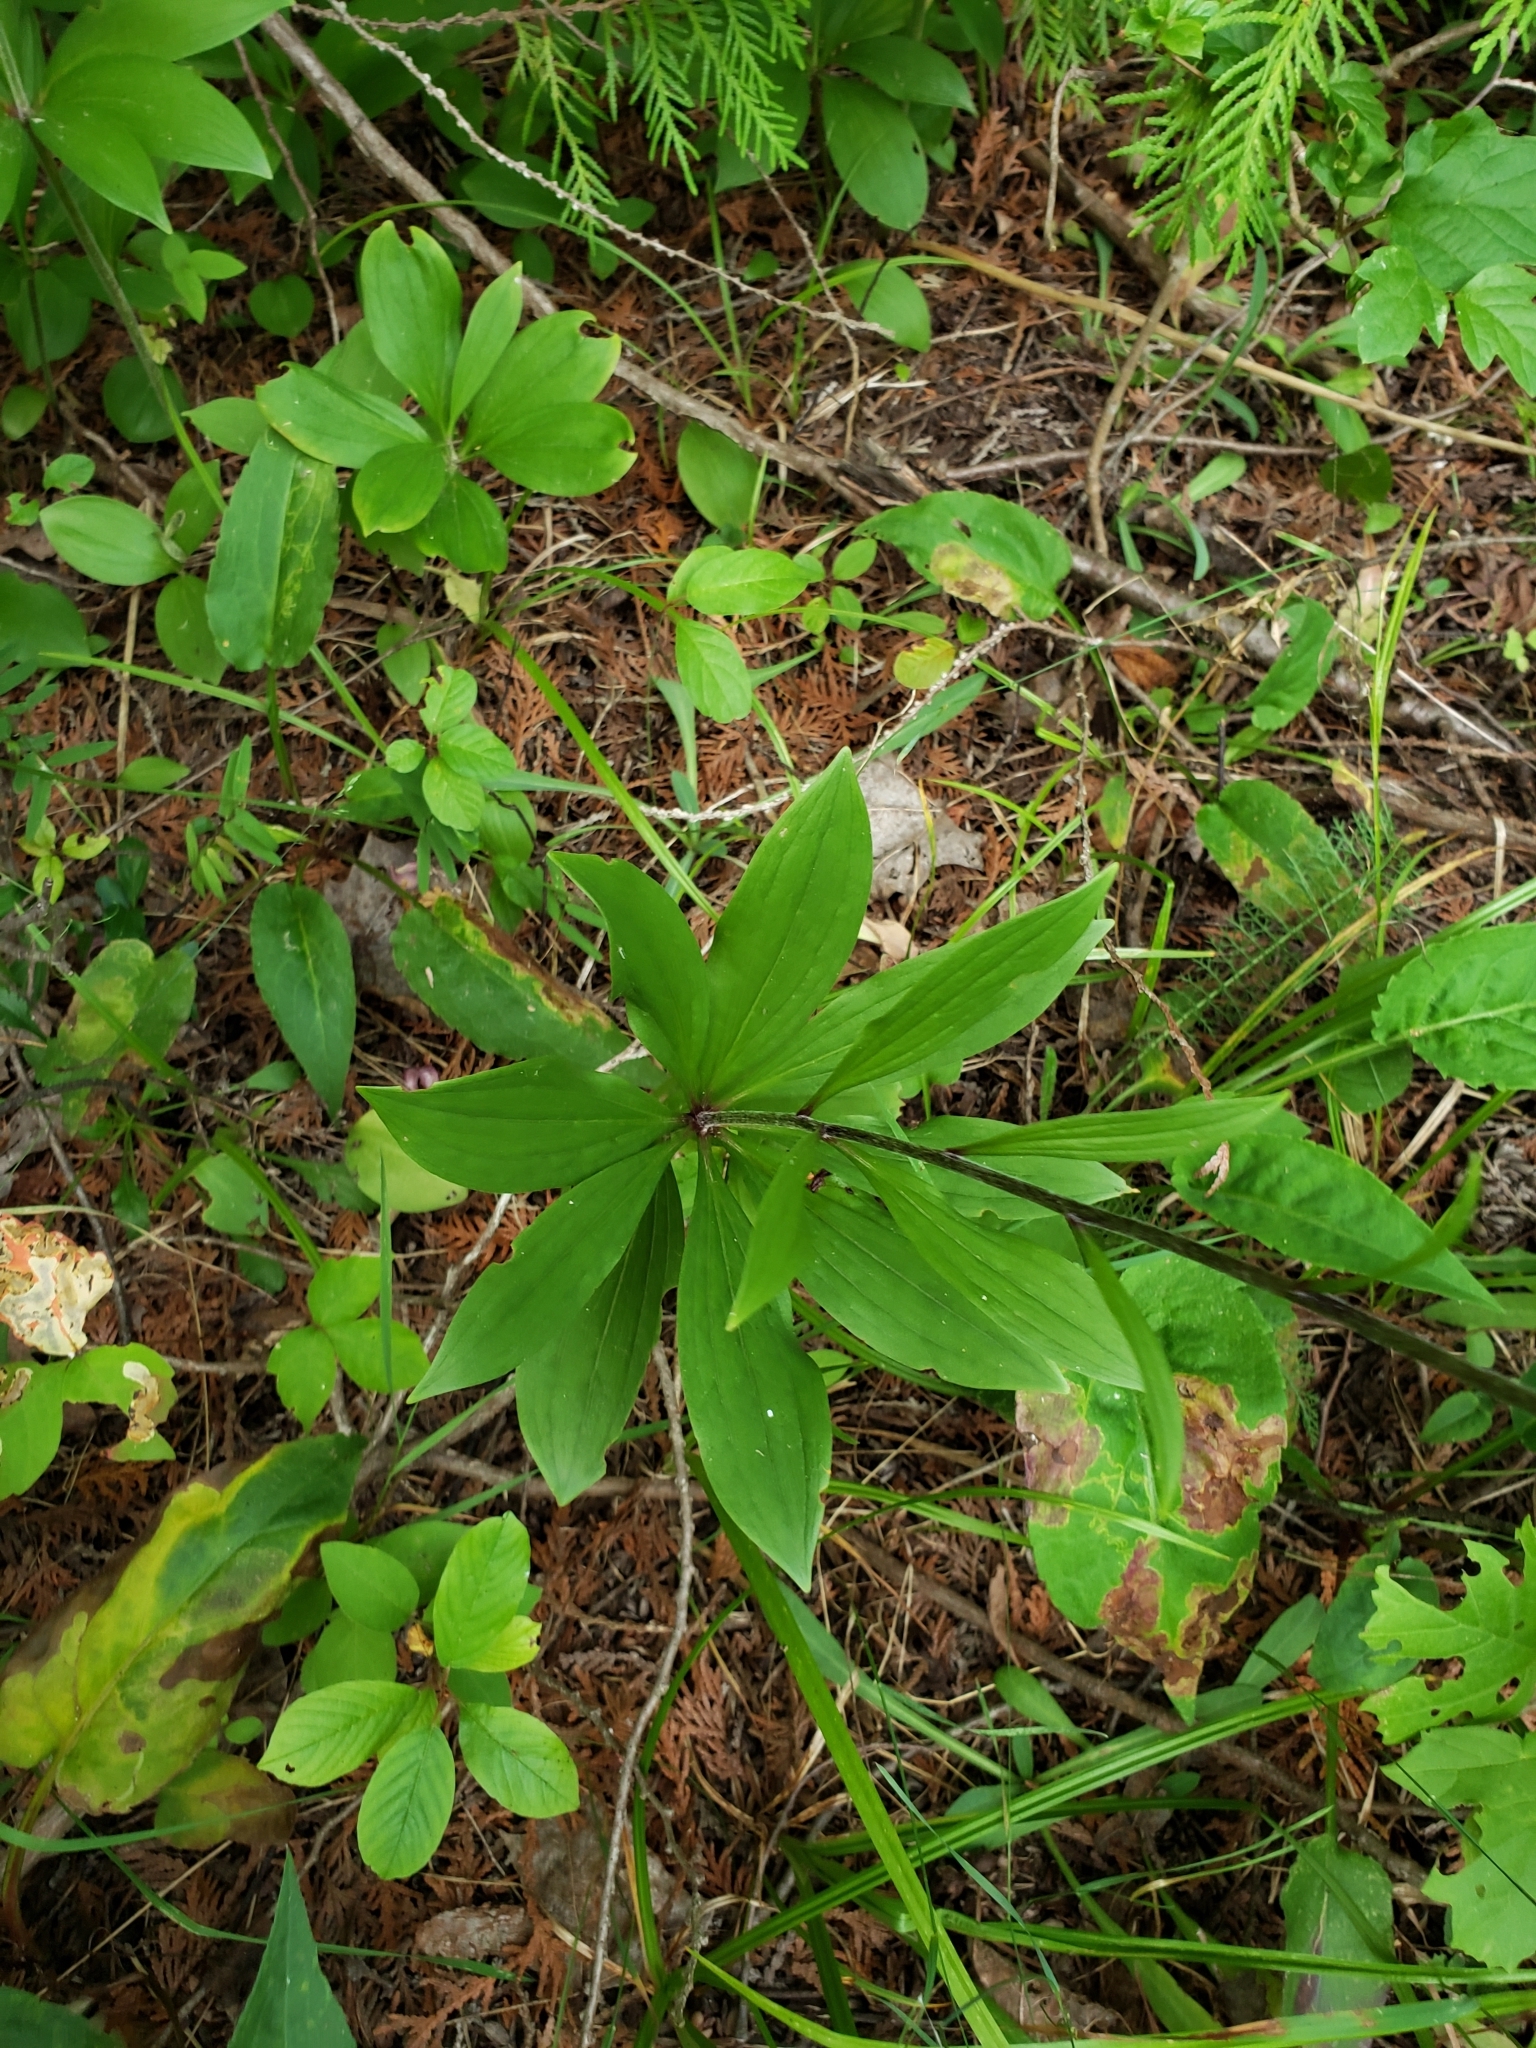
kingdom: Plantae
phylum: Tracheophyta
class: Liliopsida
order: Liliales
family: Liliaceae
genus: Lilium
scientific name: Lilium martagon
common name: Martagon lily
